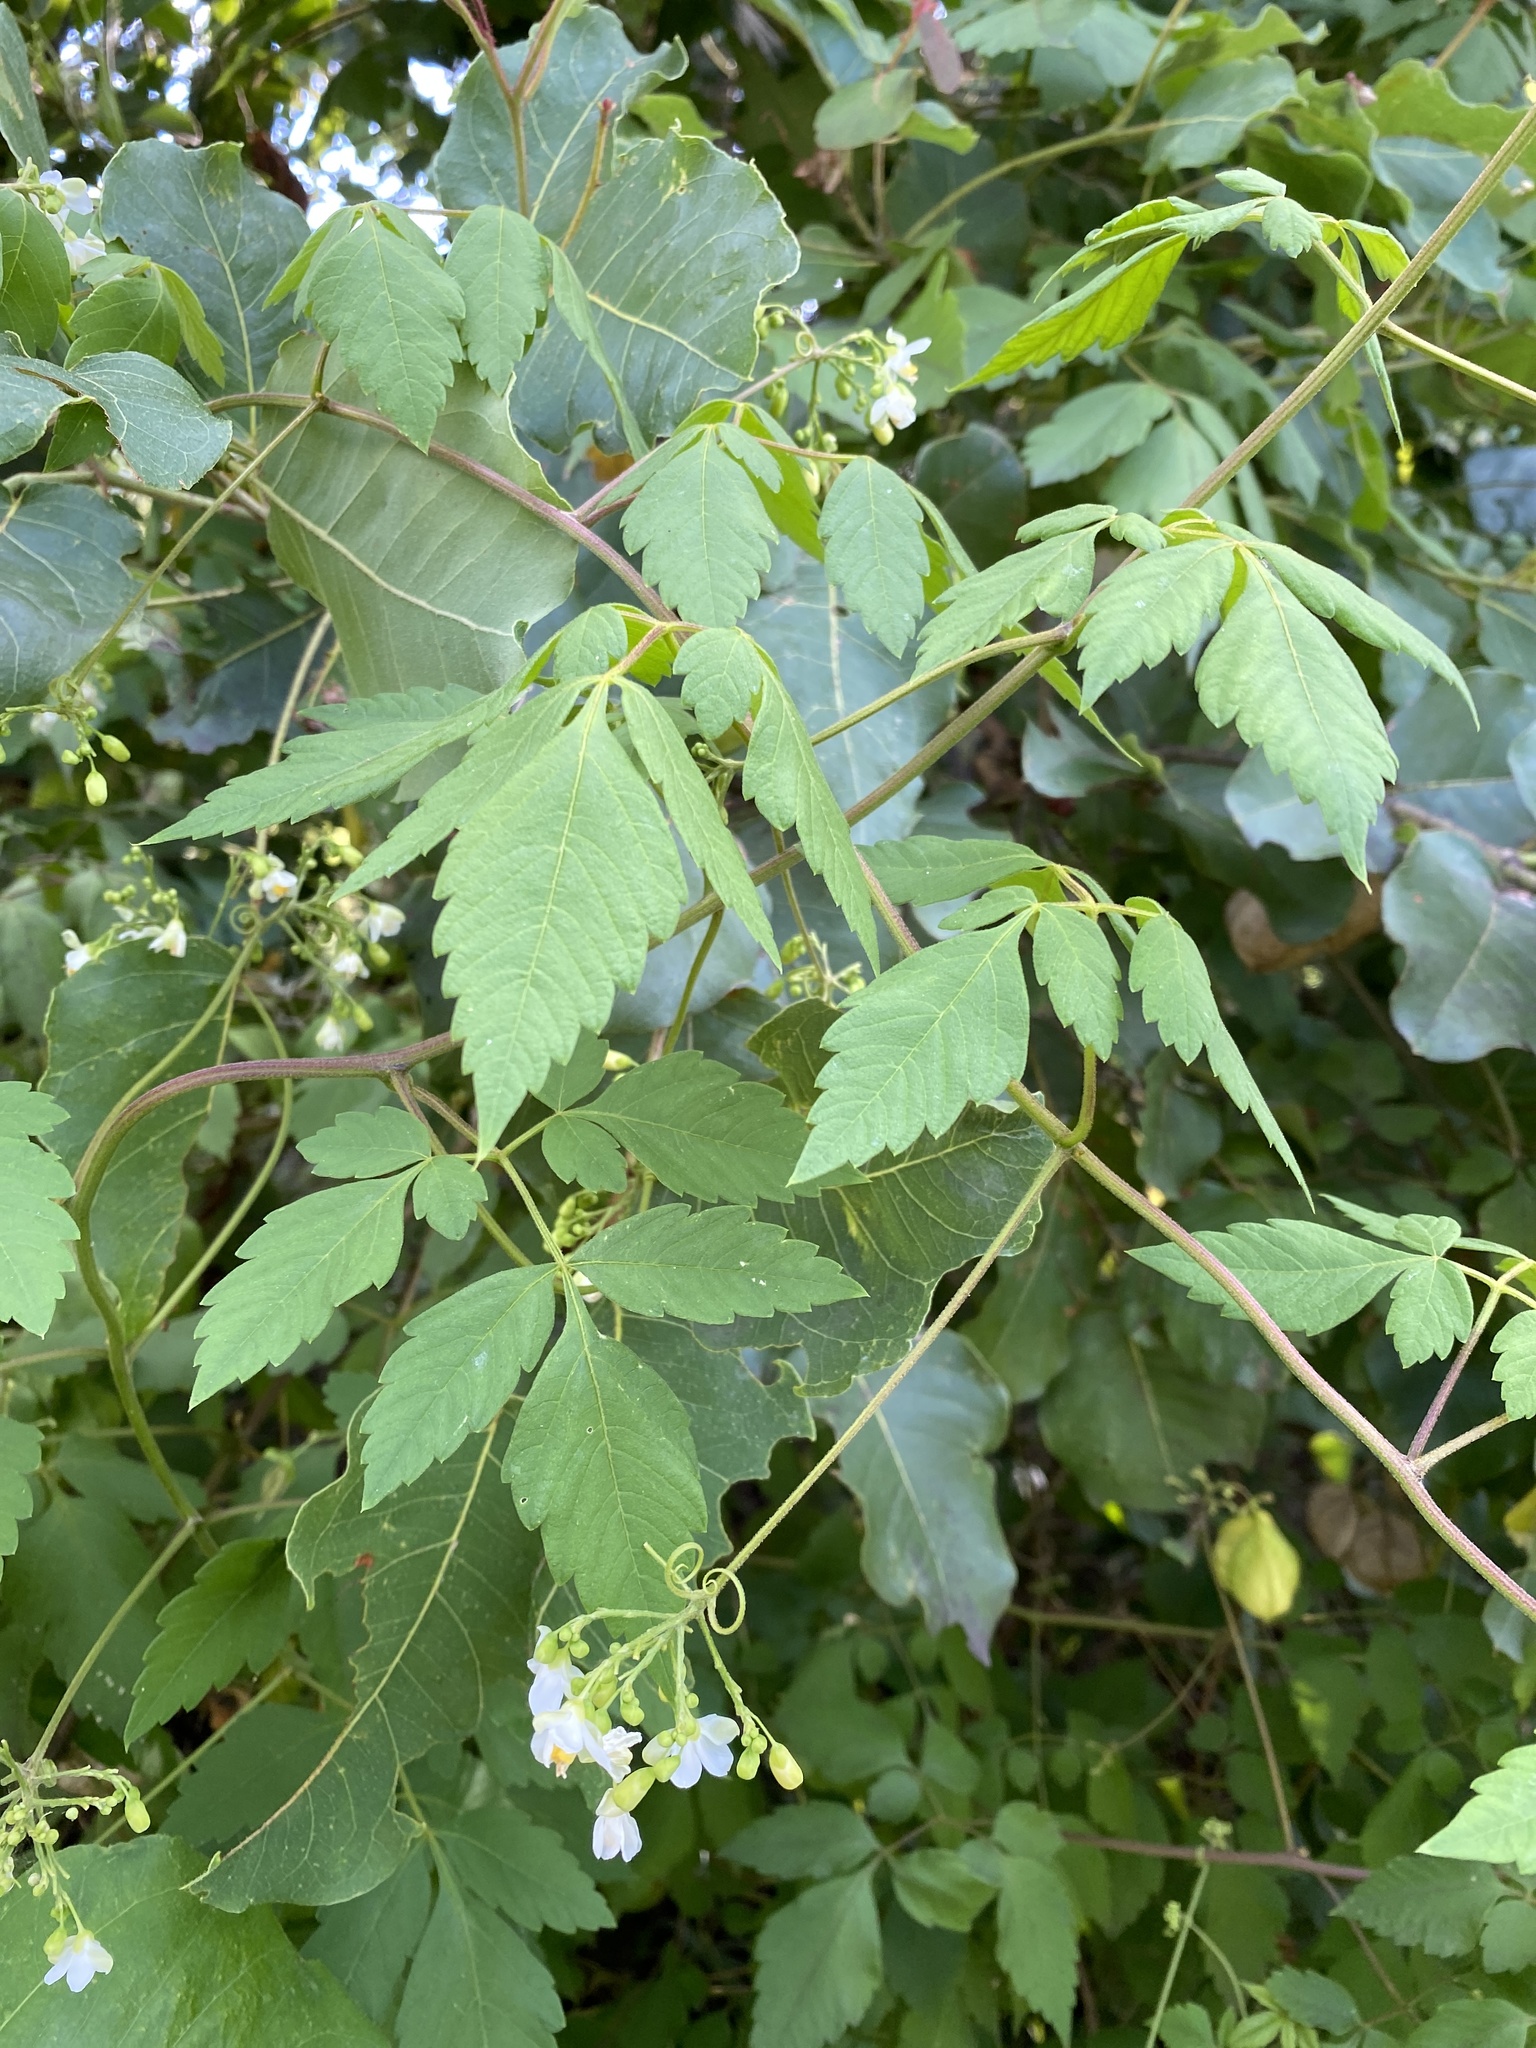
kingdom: Plantae
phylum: Tracheophyta
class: Magnoliopsida
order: Sapindales
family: Sapindaceae
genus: Cardiospermum
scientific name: Cardiospermum grandiflorum
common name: Balloon vine
